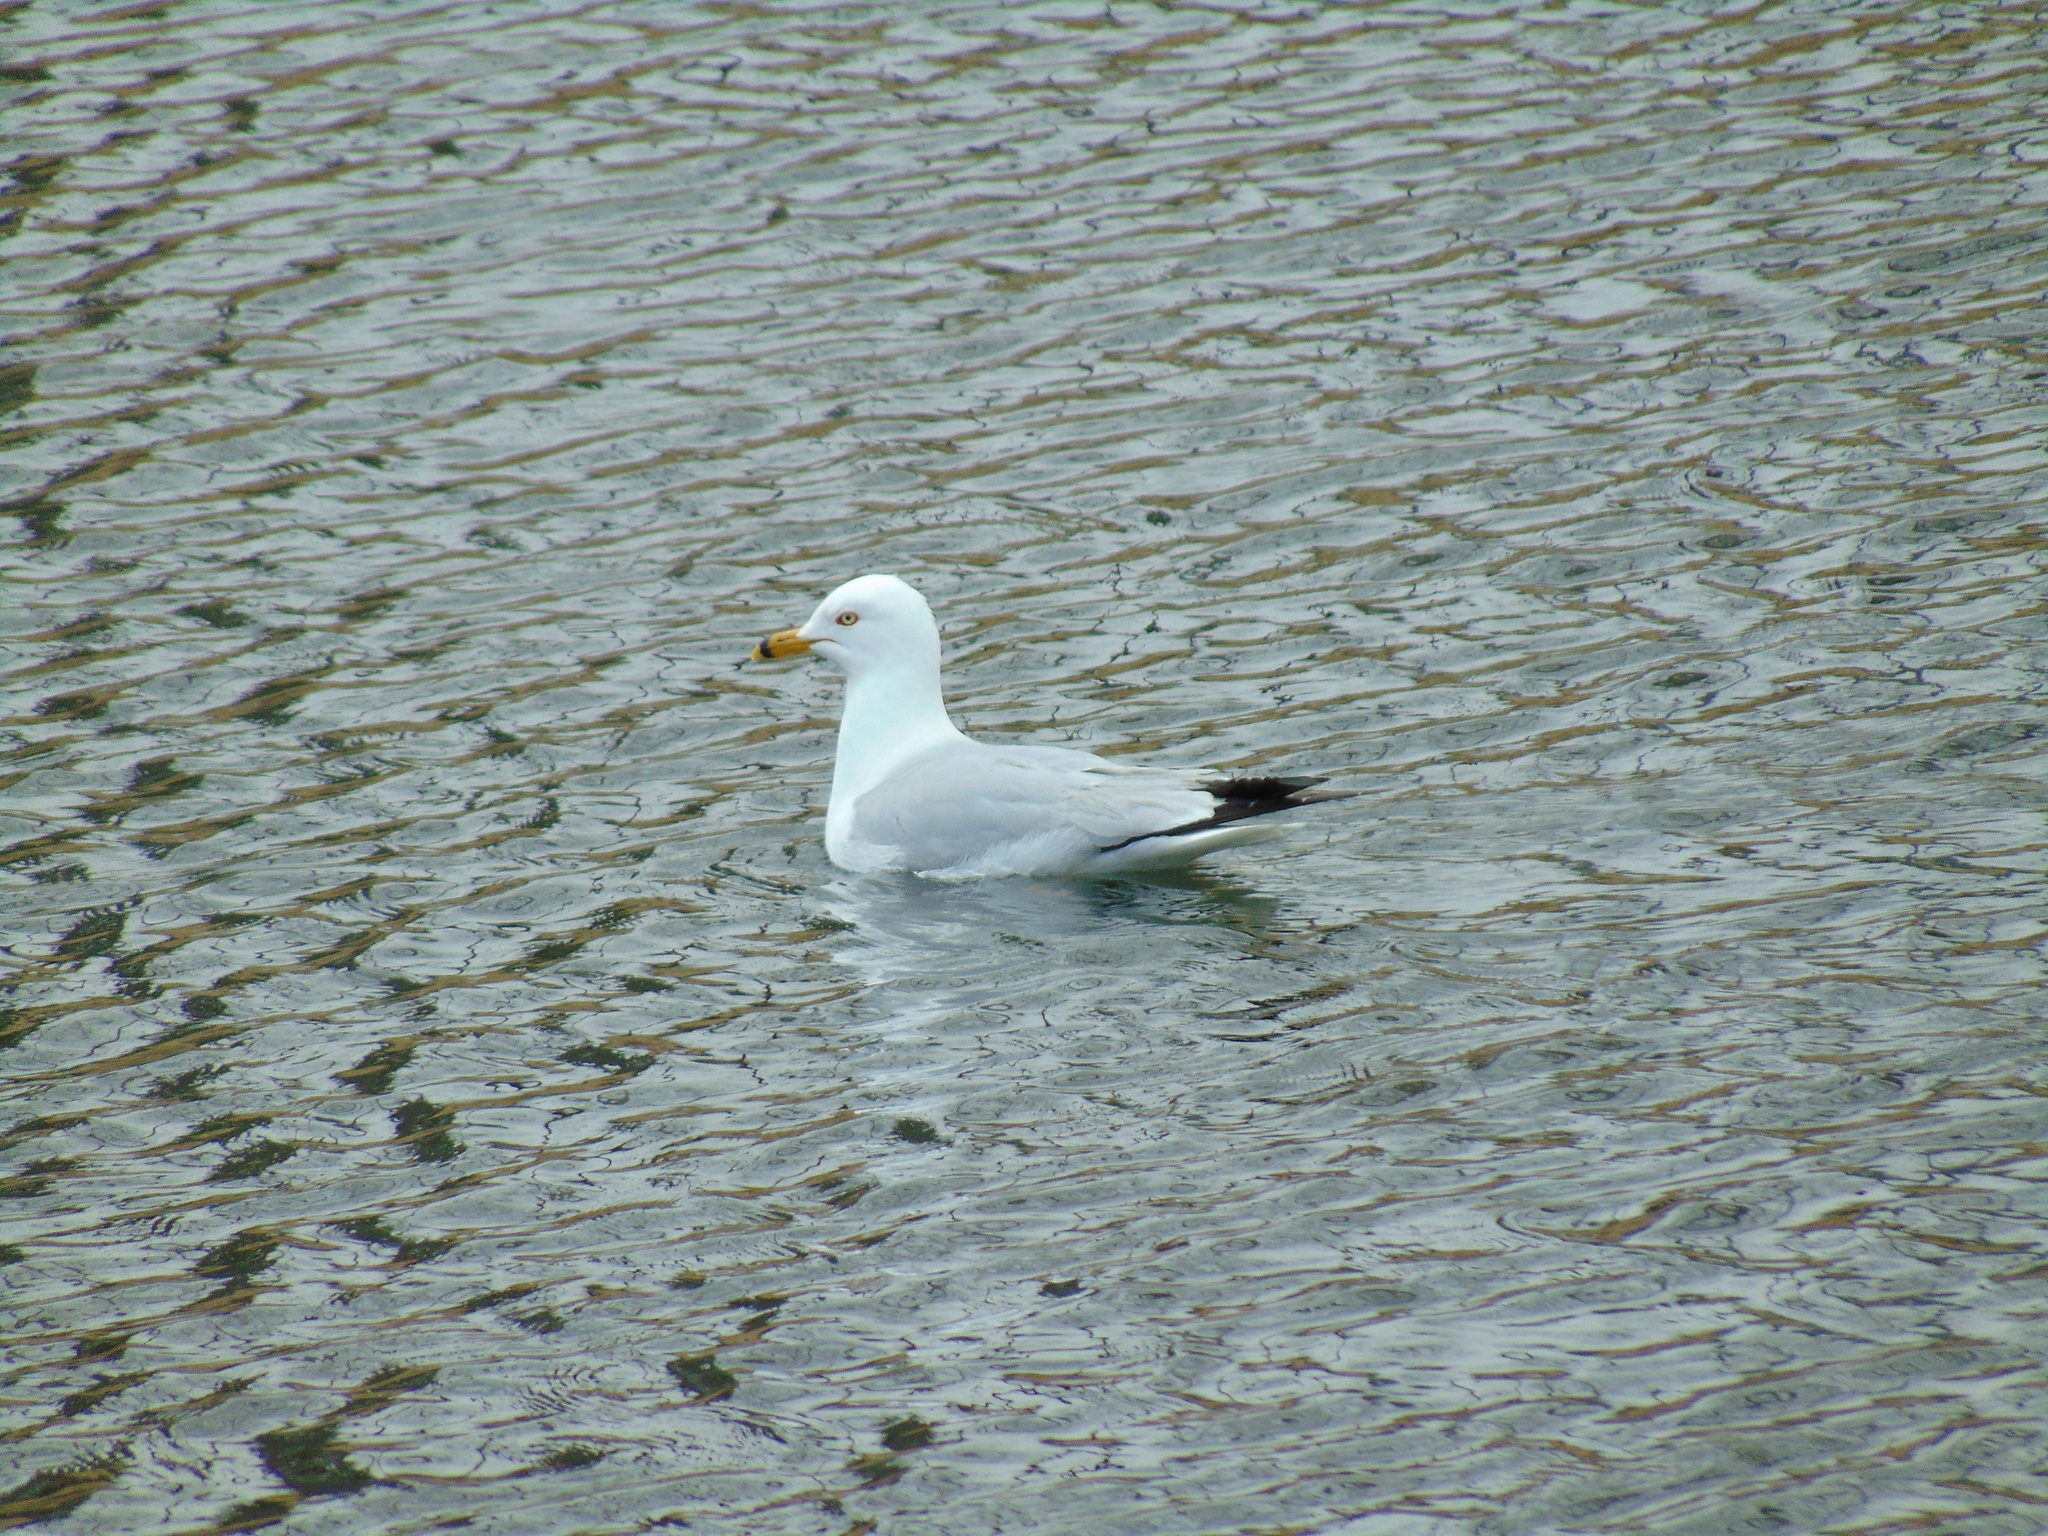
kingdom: Animalia
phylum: Chordata
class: Aves
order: Charadriiformes
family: Laridae
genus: Larus
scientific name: Larus delawarensis
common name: Ring-billed gull
